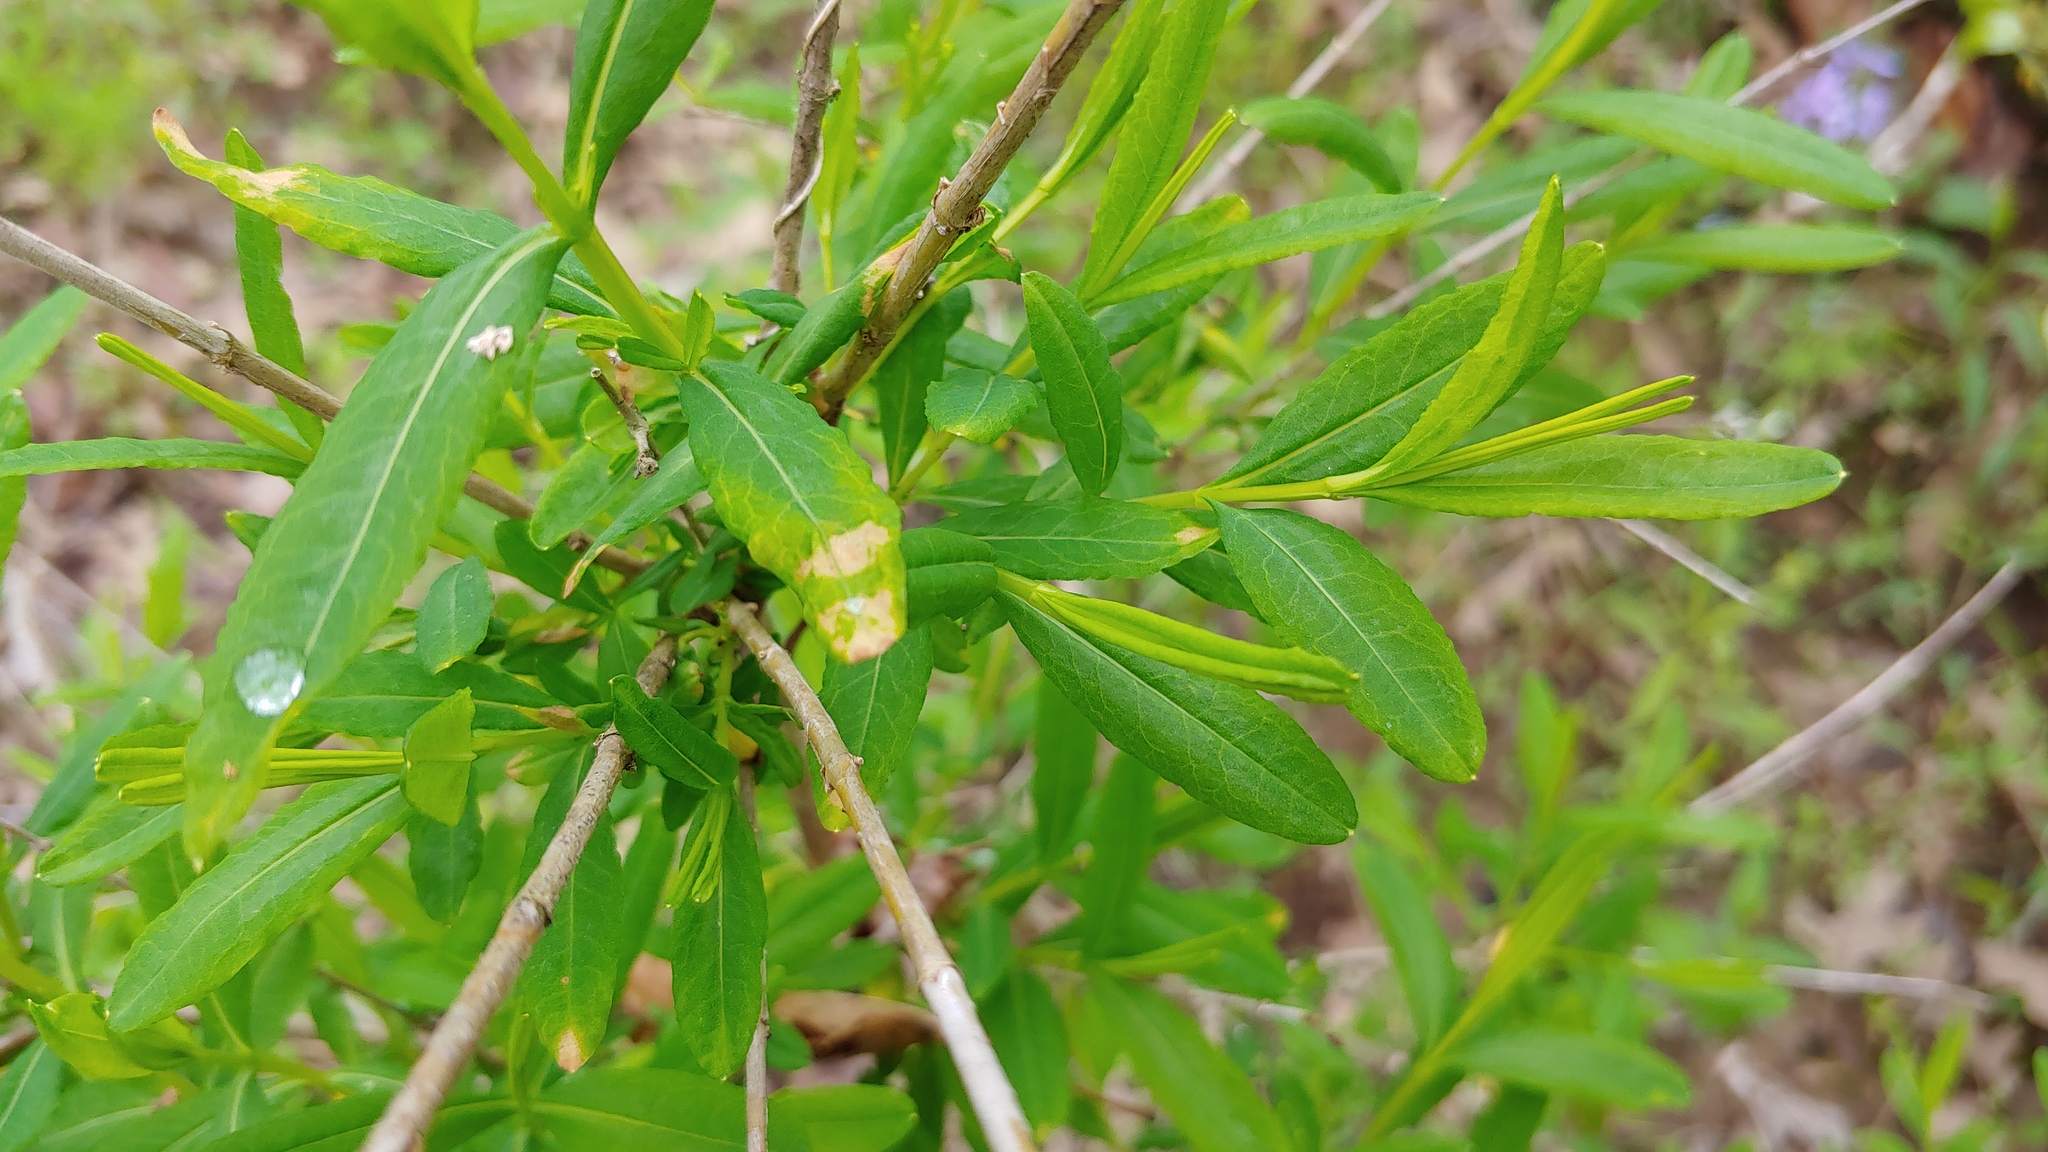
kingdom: Plantae
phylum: Tracheophyta
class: Magnoliopsida
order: Malpighiales
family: Hypericaceae
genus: Hypericum
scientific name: Hypericum prolificum
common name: Shrubby st. john's-wort
